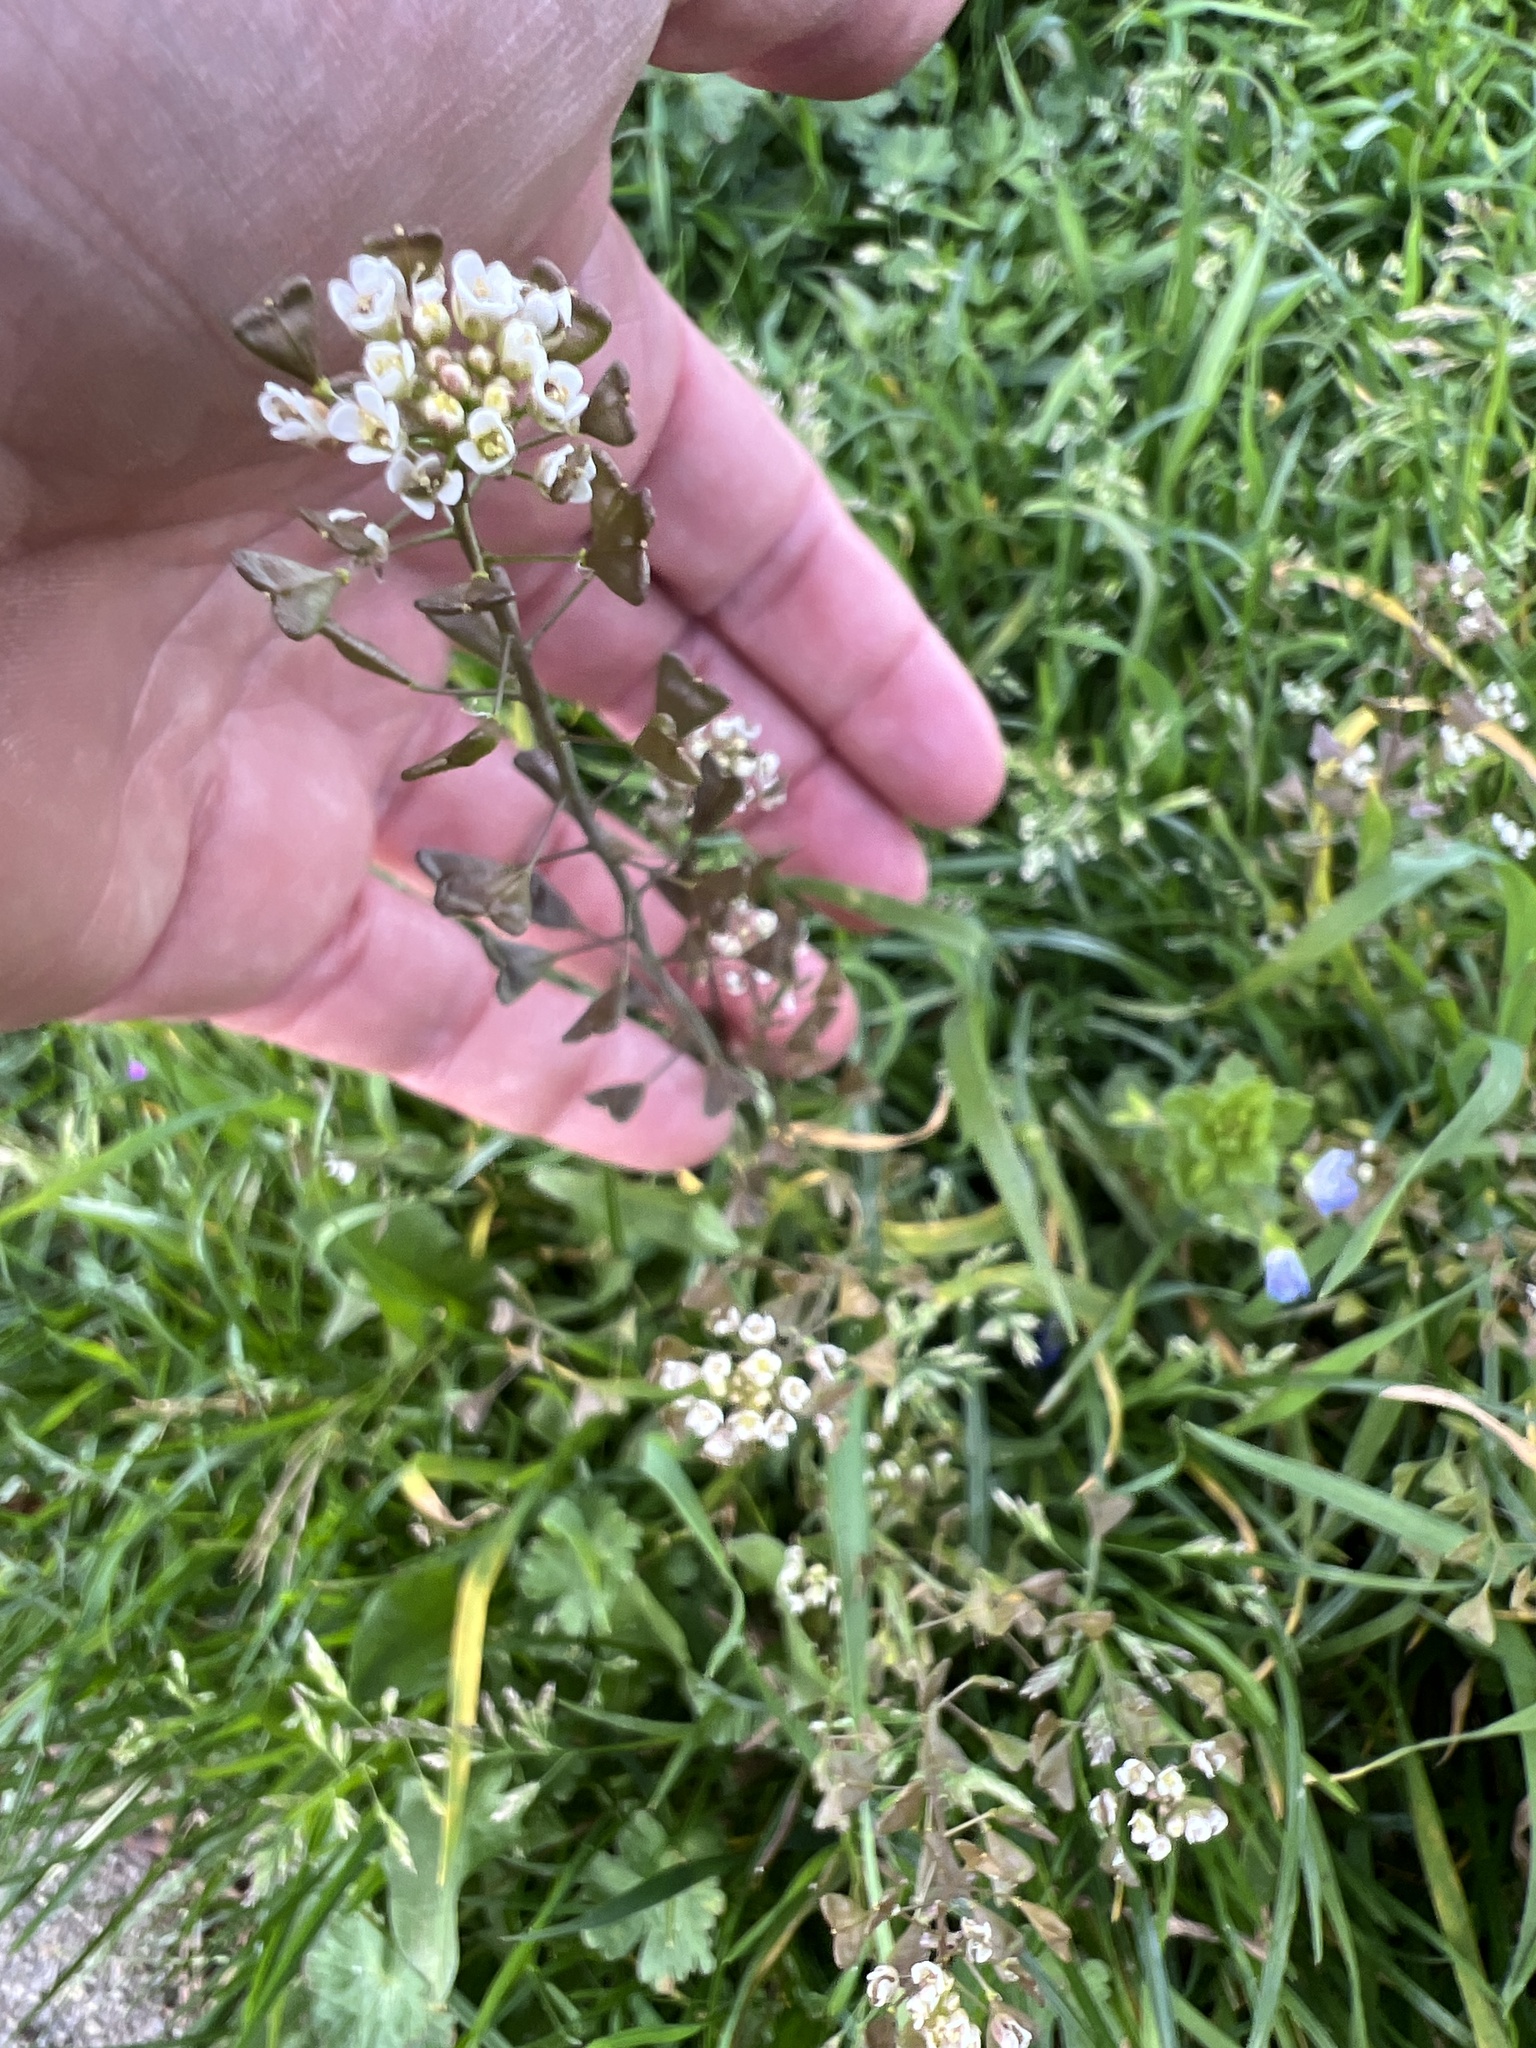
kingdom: Plantae
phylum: Tracheophyta
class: Magnoliopsida
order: Brassicales
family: Brassicaceae
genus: Capsella
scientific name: Capsella bursa-pastoris
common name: Shepherd's purse
